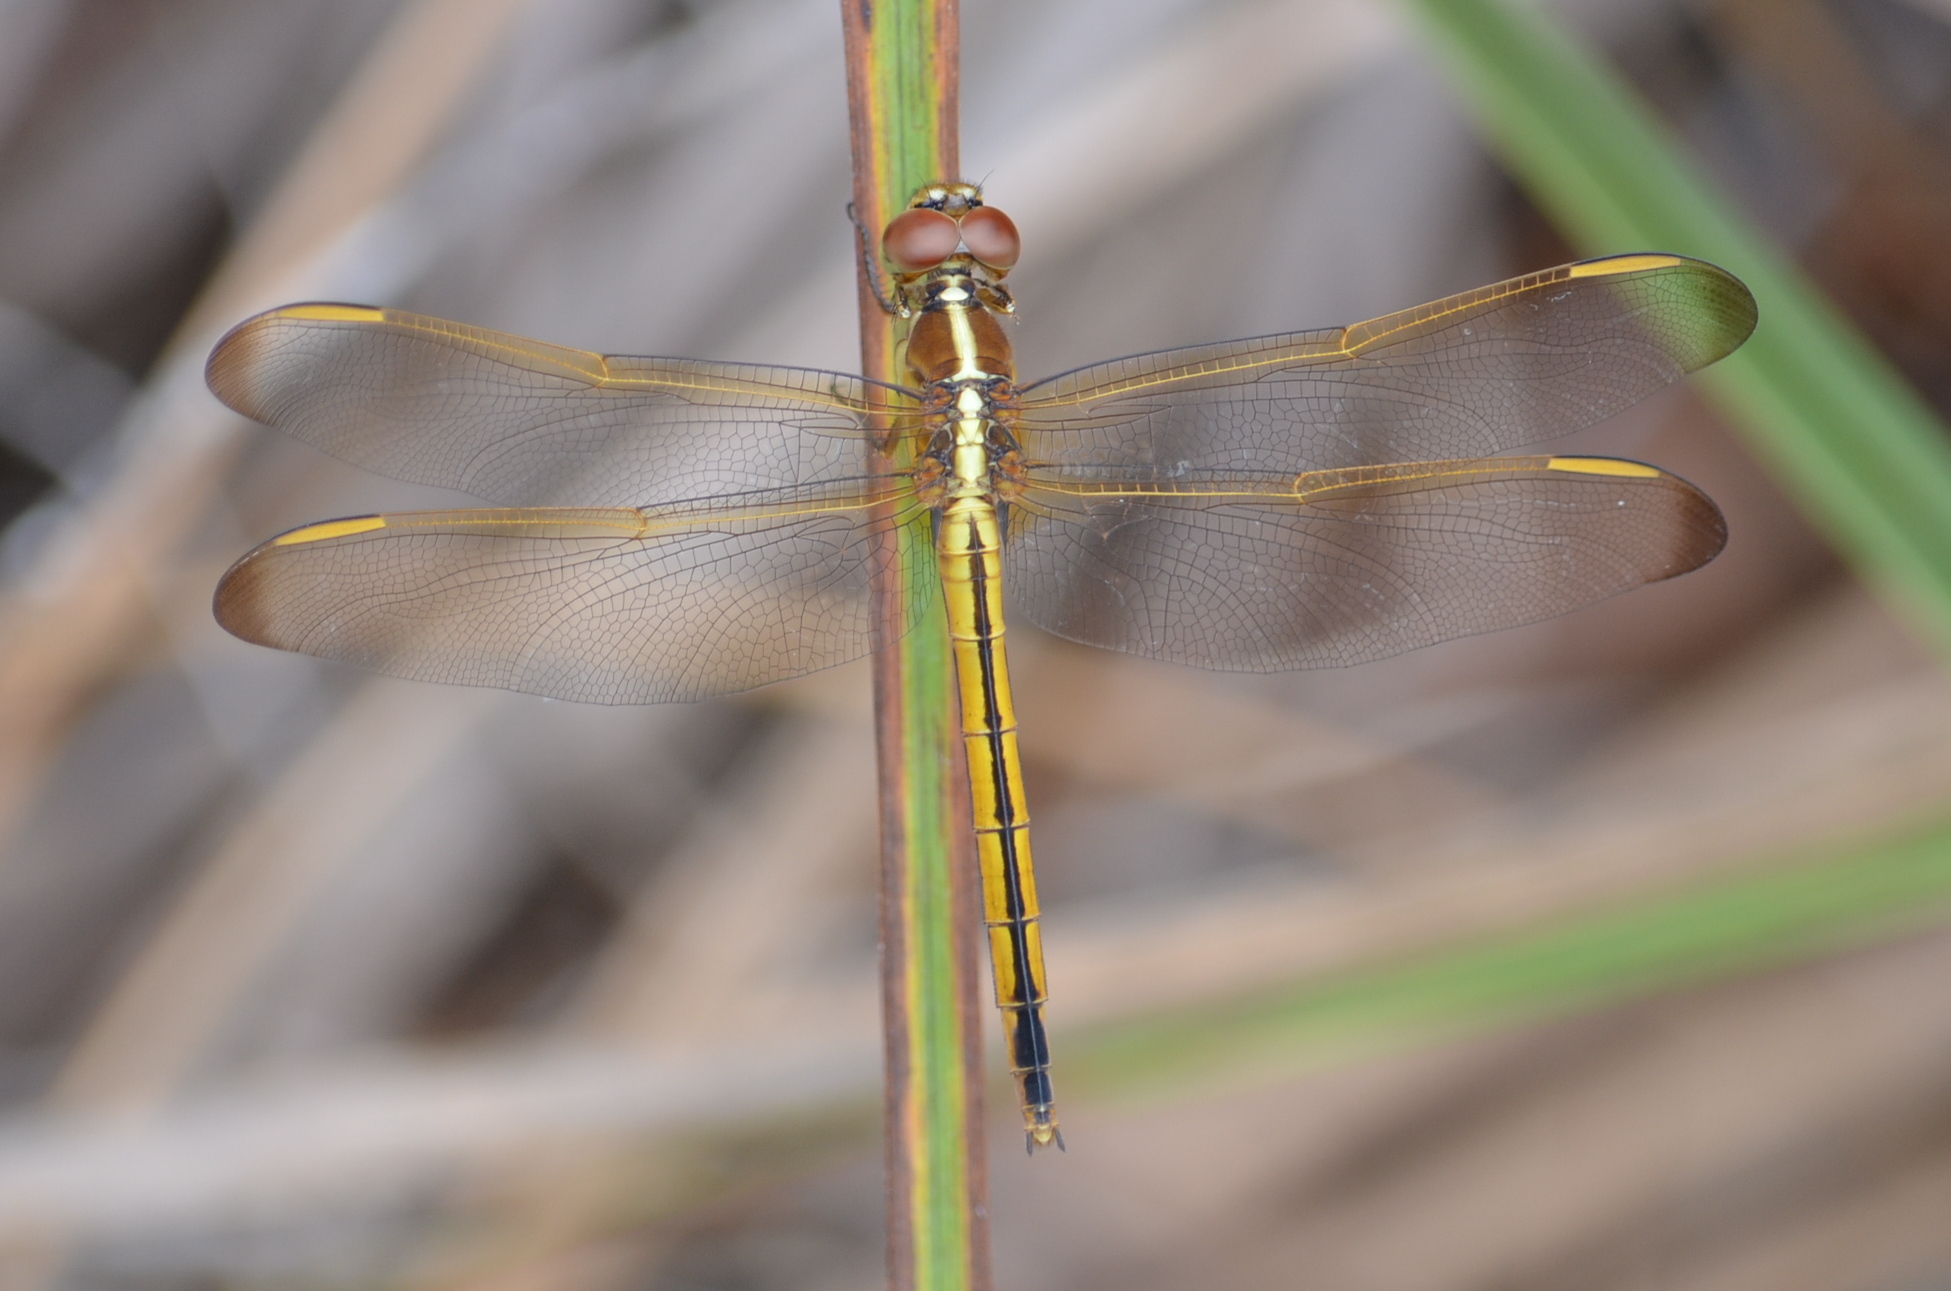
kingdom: Animalia
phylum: Arthropoda
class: Insecta
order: Odonata
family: Libellulidae
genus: Libellula
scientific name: Libellula needhami
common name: Needham's skimmer
